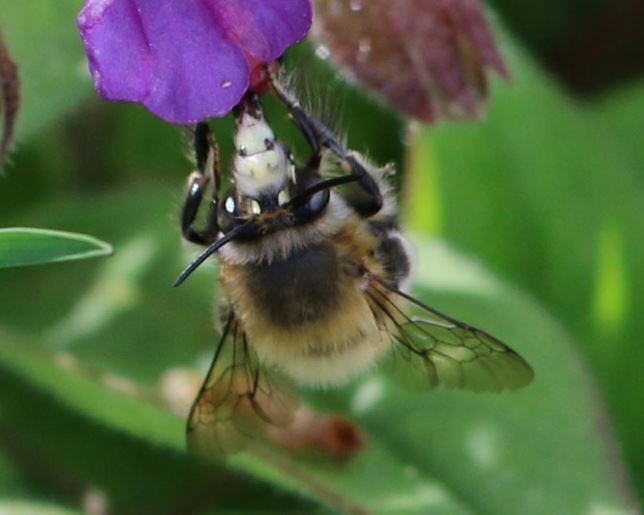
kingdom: Animalia
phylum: Arthropoda
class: Insecta
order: Hymenoptera
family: Apidae
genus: Anthophora
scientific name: Anthophora plumipes
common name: Hairy-footed flower bee
